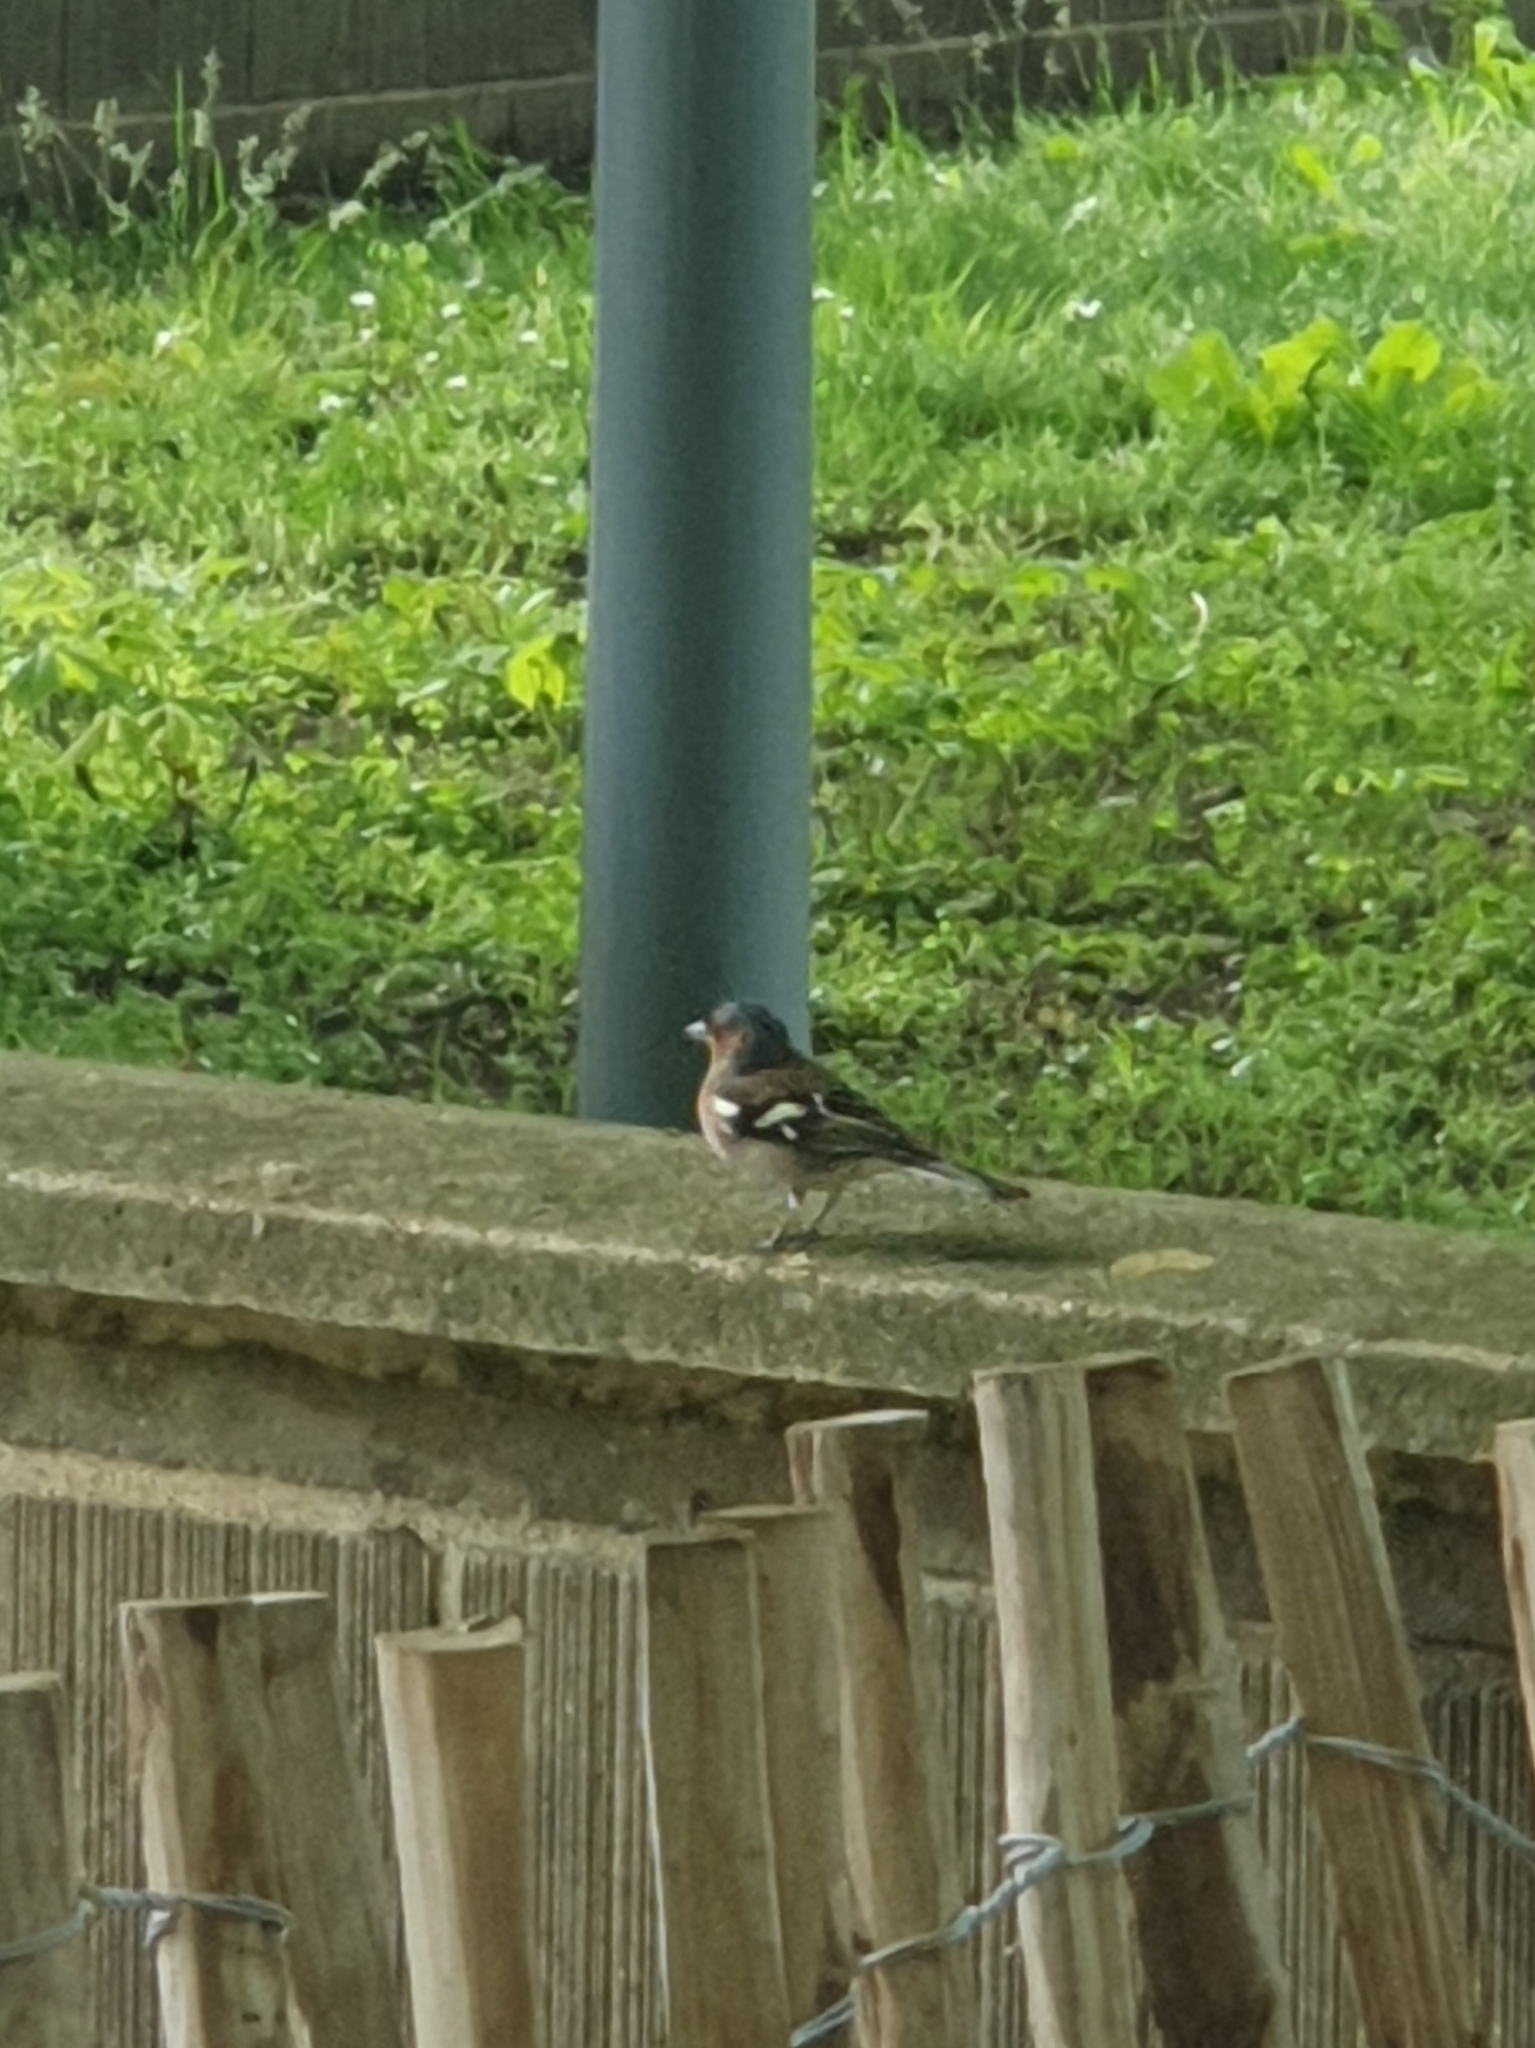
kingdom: Animalia
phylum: Chordata
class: Aves
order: Passeriformes
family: Fringillidae
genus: Fringilla
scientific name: Fringilla coelebs
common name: Common chaffinch
